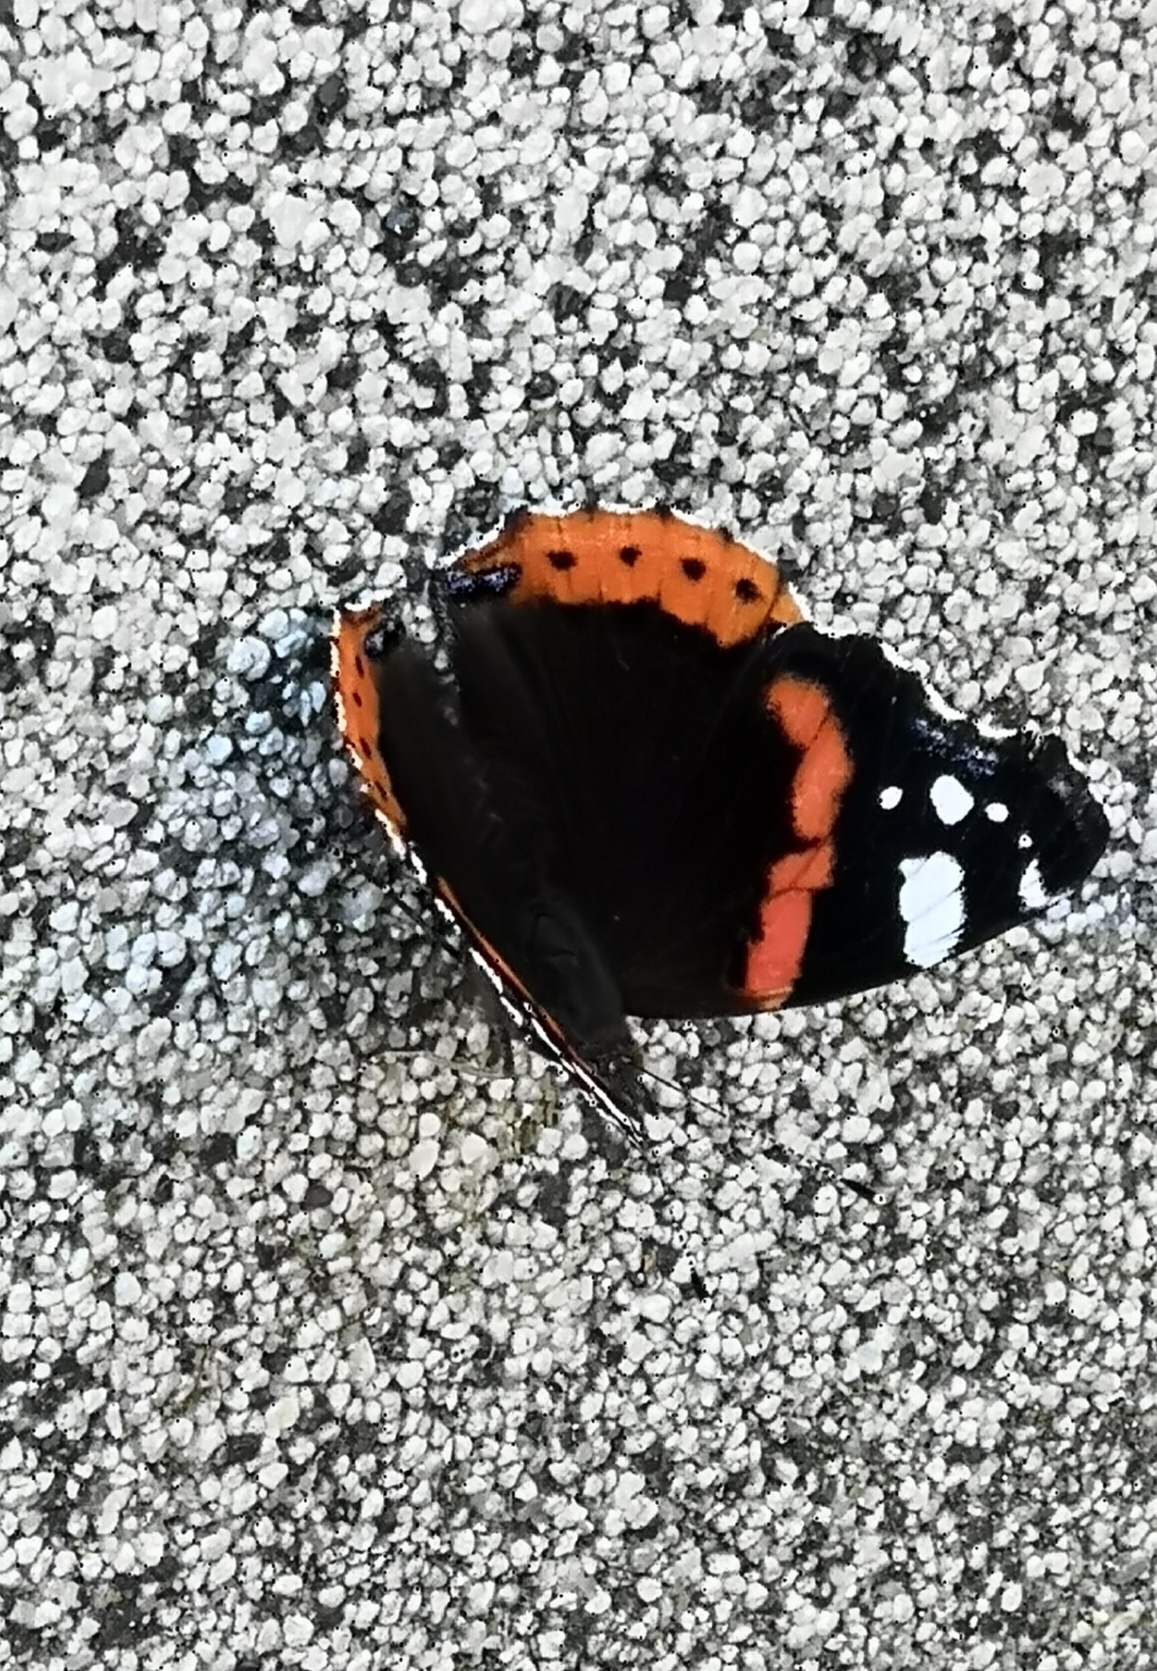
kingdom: Animalia
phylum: Arthropoda
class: Insecta
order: Lepidoptera
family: Nymphalidae
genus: Vanessa
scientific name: Vanessa atalanta
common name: Red admiral
